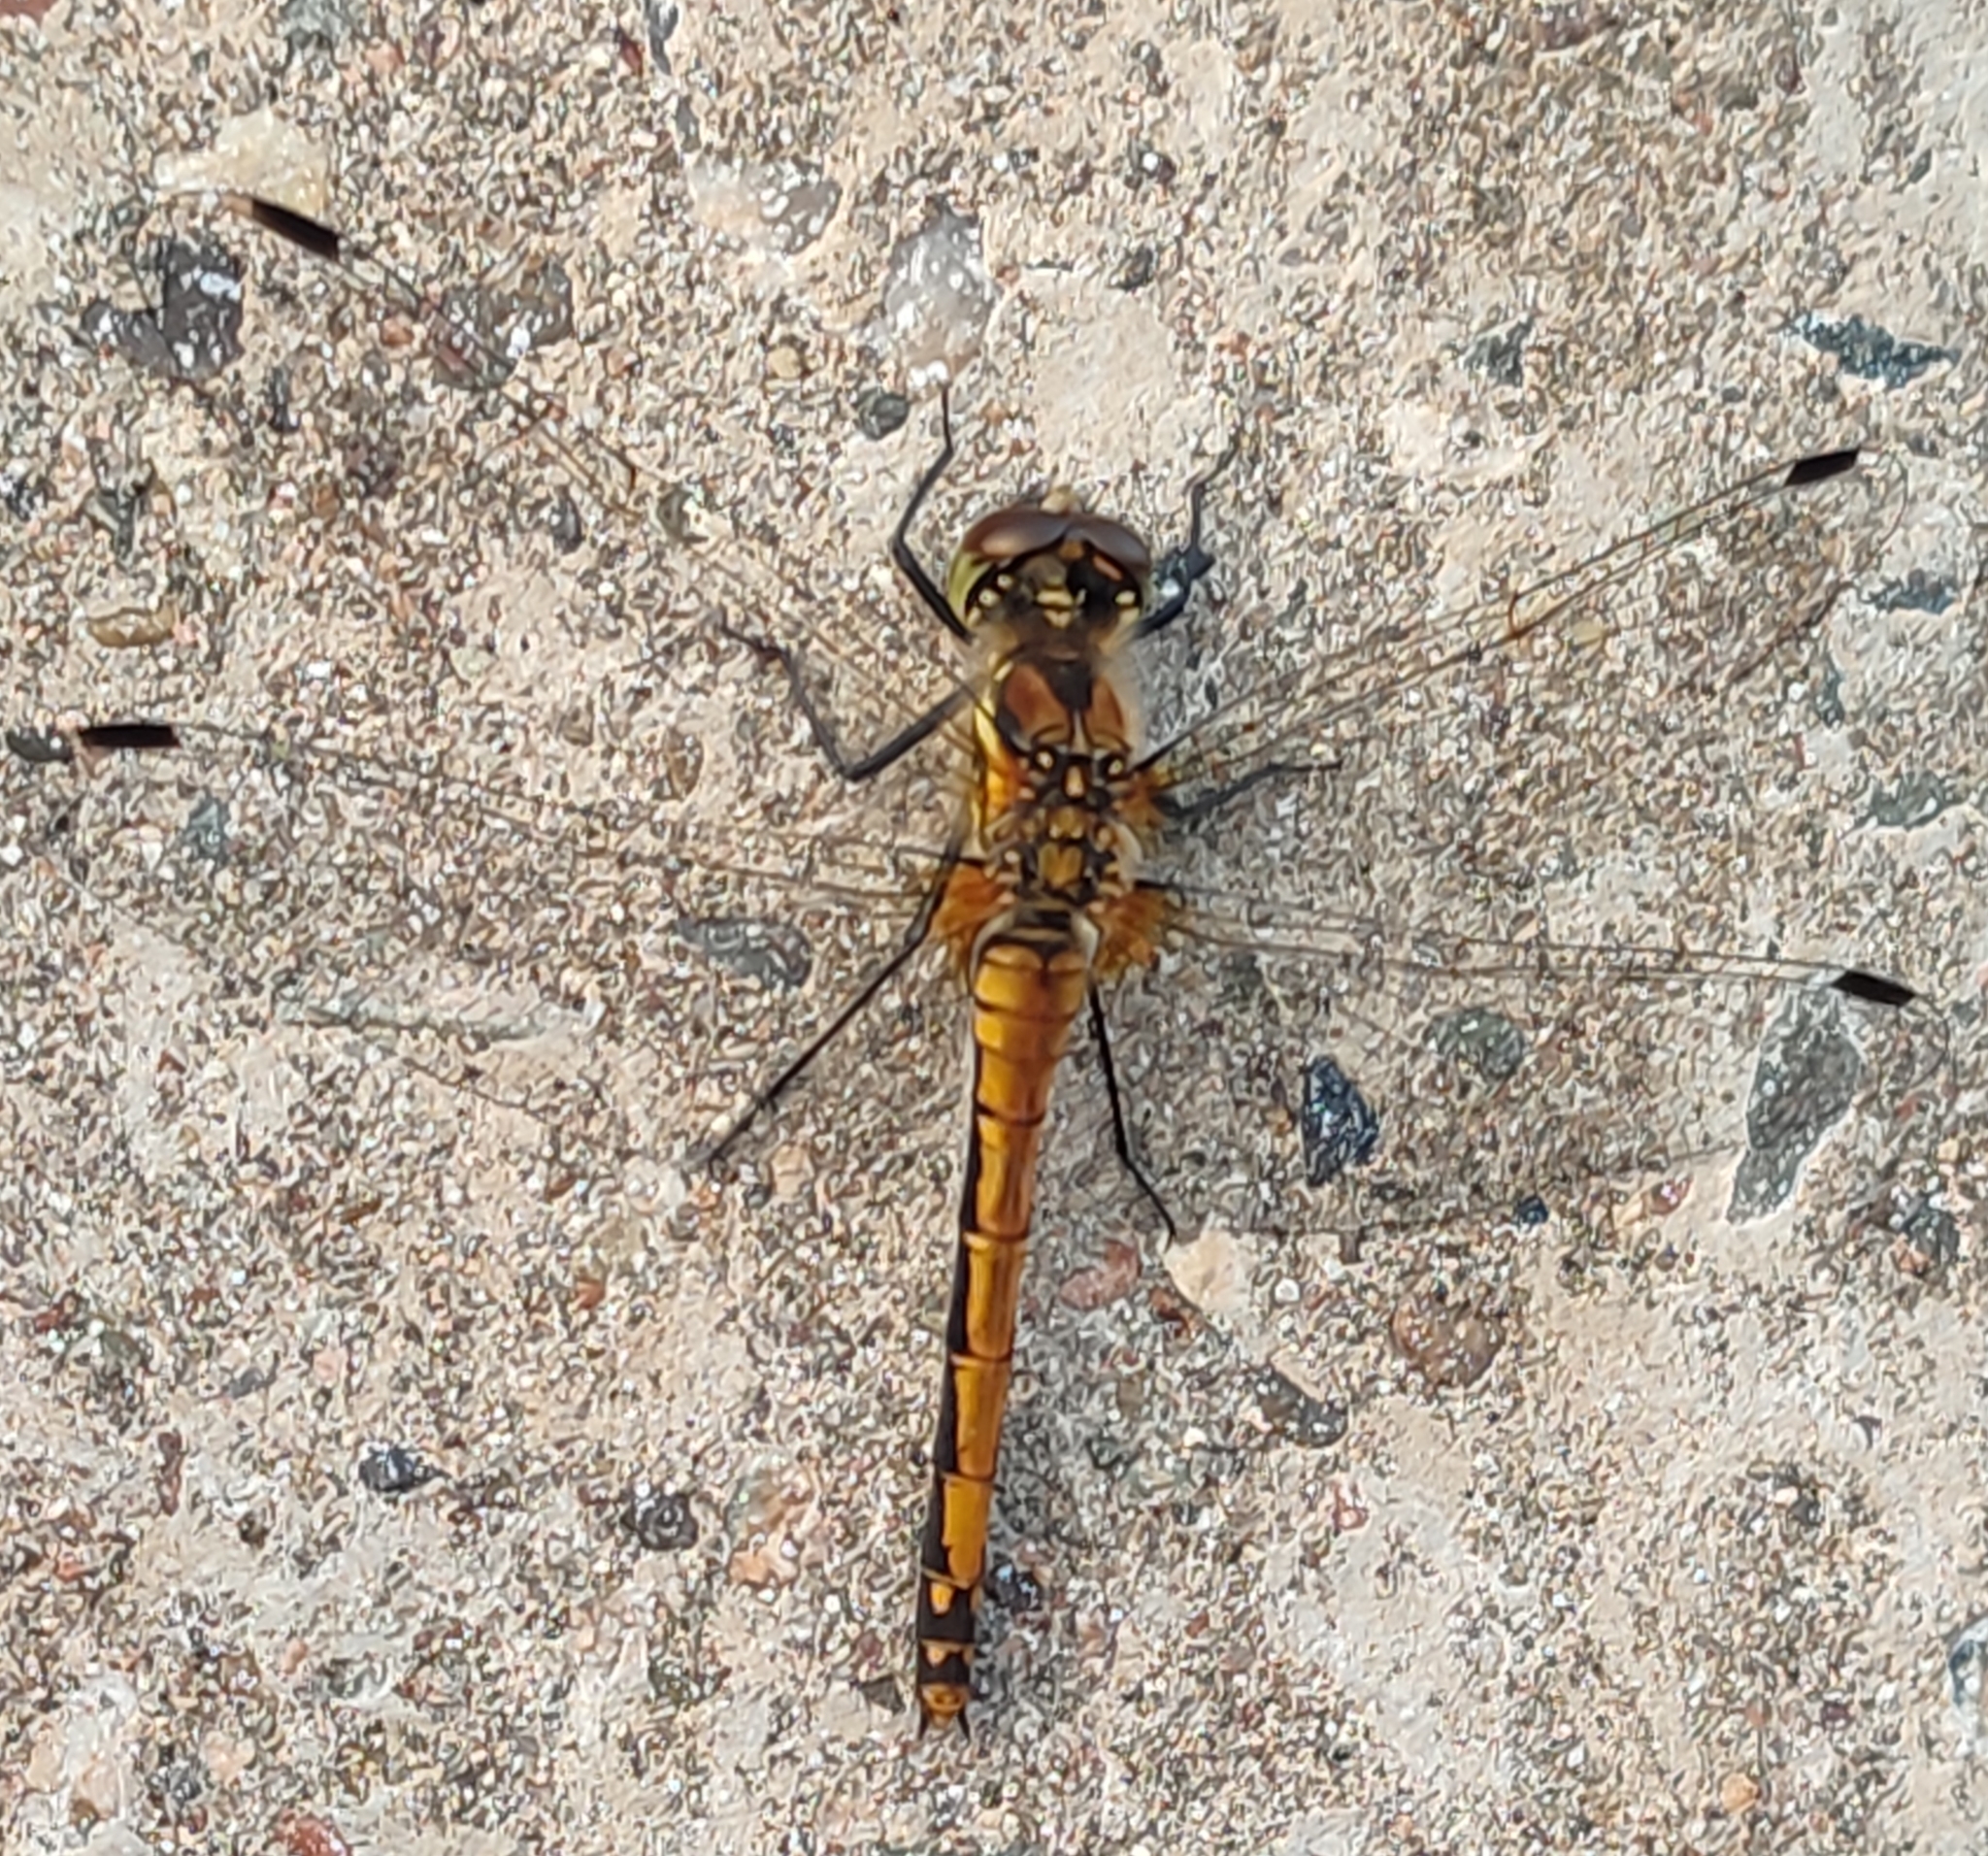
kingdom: Animalia
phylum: Arthropoda
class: Insecta
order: Odonata
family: Libellulidae
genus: Sympetrum
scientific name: Sympetrum danae
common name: Black darter
